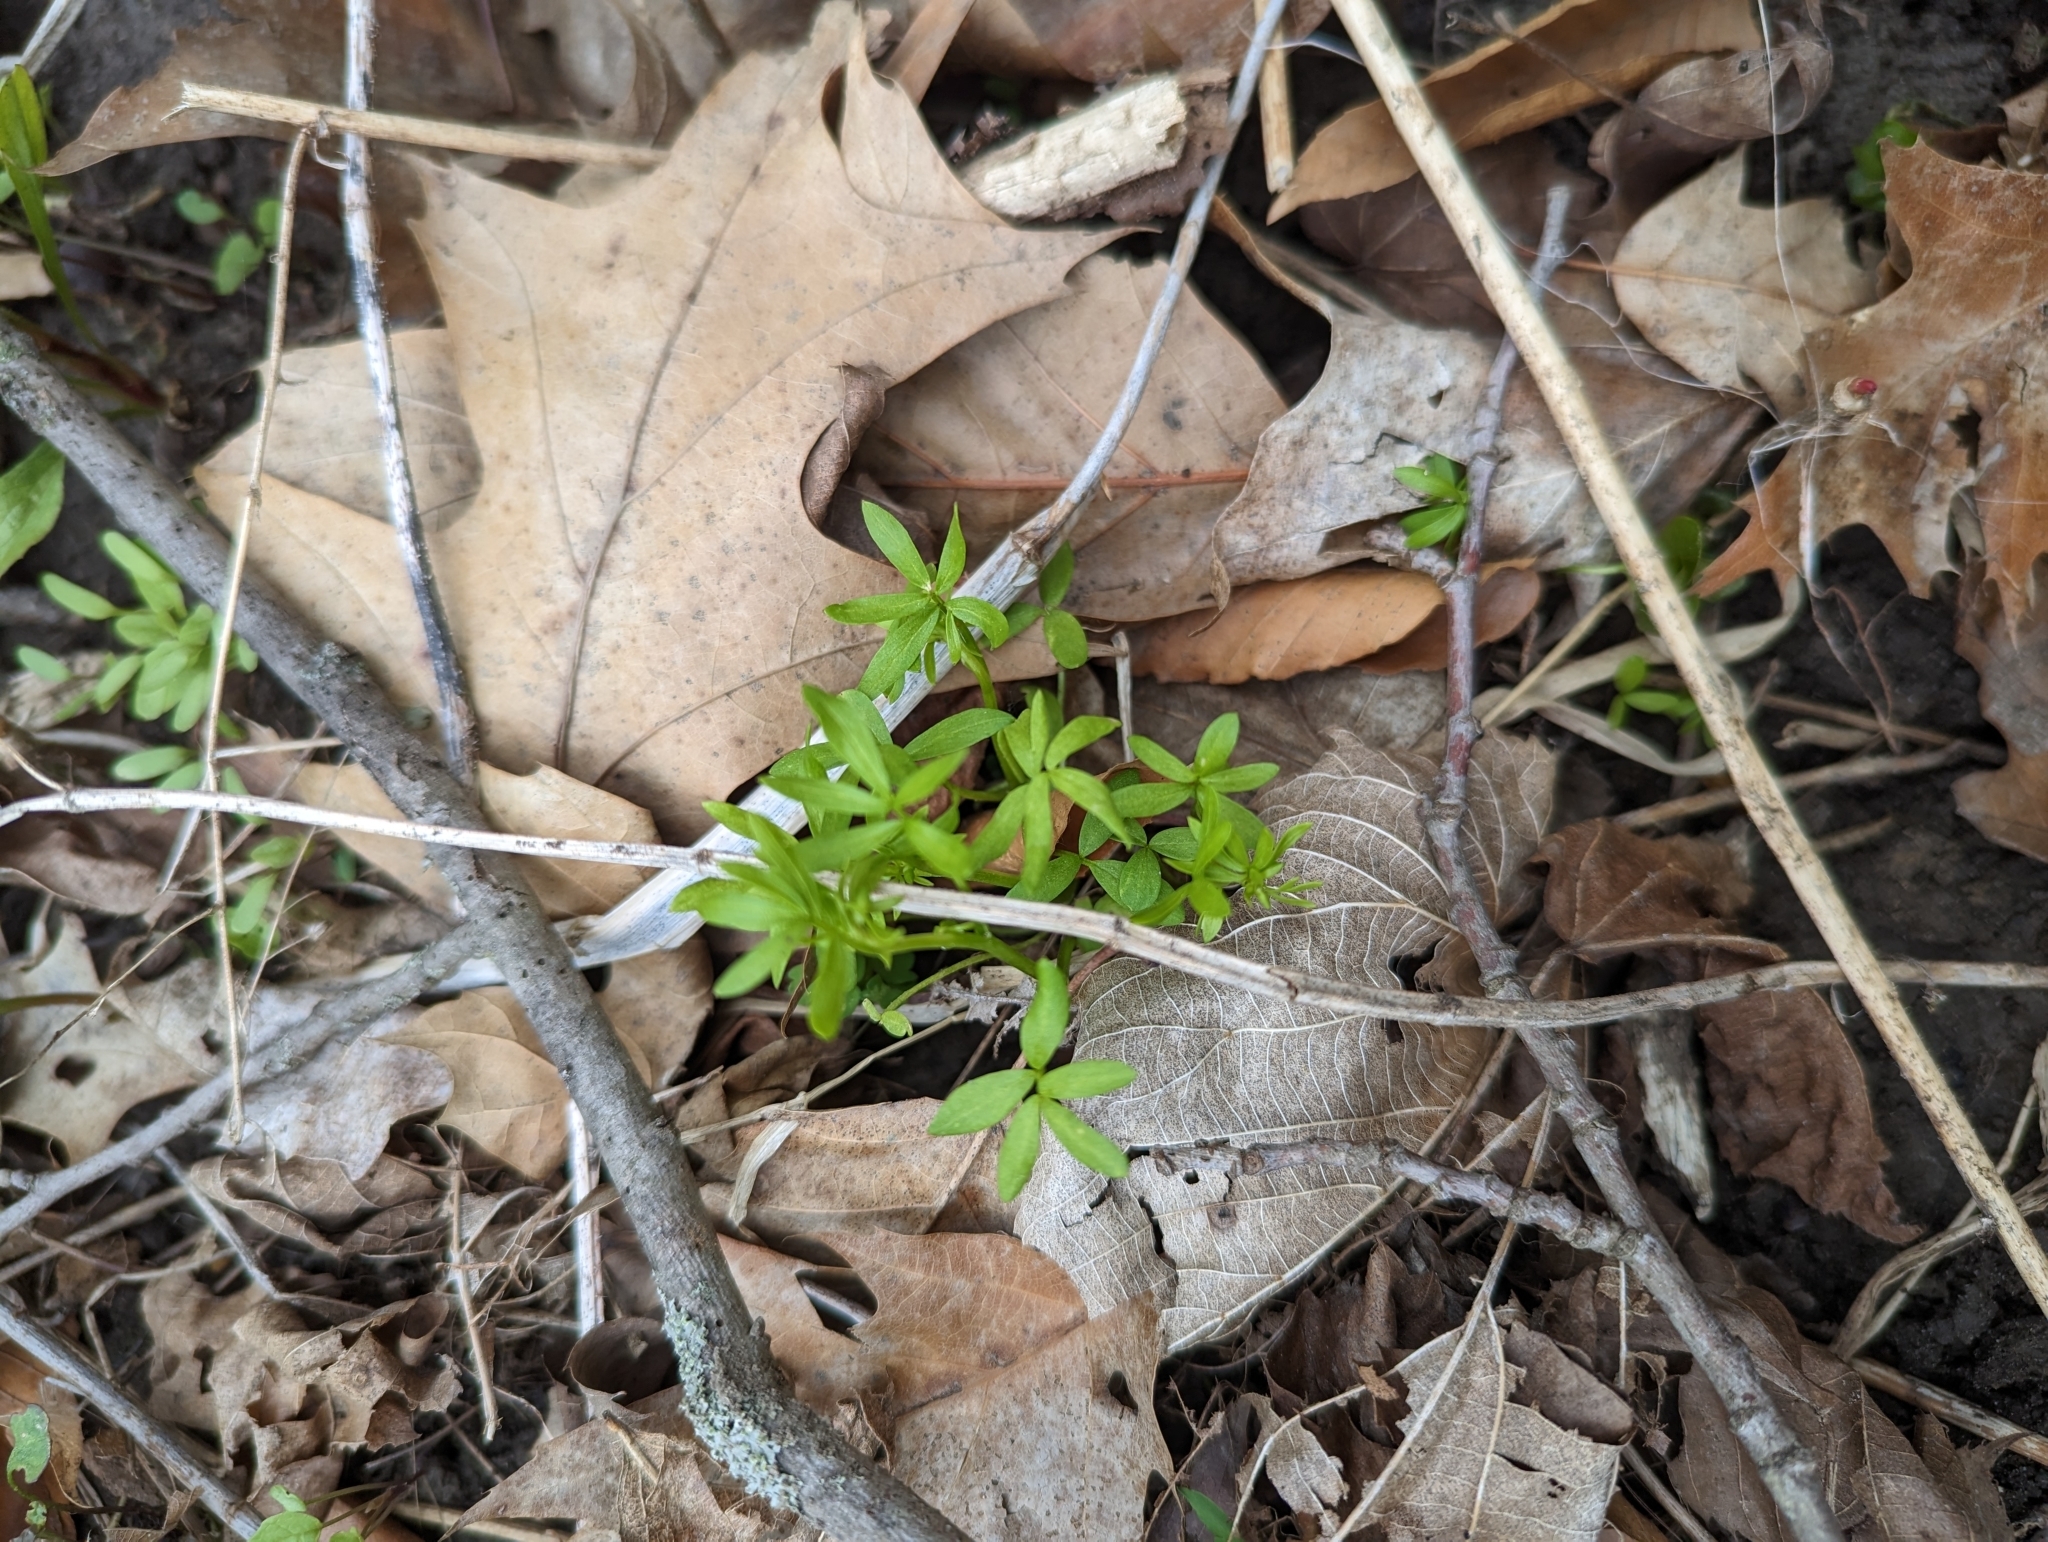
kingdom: Plantae
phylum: Tracheophyta
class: Magnoliopsida
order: Brassicales
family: Limnanthaceae
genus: Floerkea
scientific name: Floerkea proserpinacoides
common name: False mermaid
